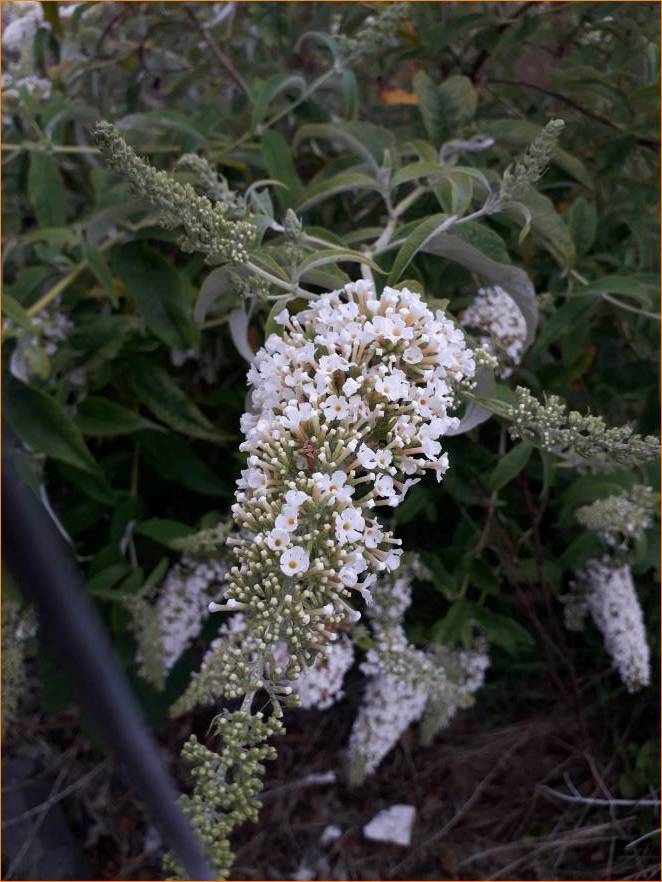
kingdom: Plantae
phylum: Tracheophyta
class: Magnoliopsida
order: Lamiales
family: Scrophulariaceae
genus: Buddleja
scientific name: Buddleja davidii
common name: Butterfly-bush
